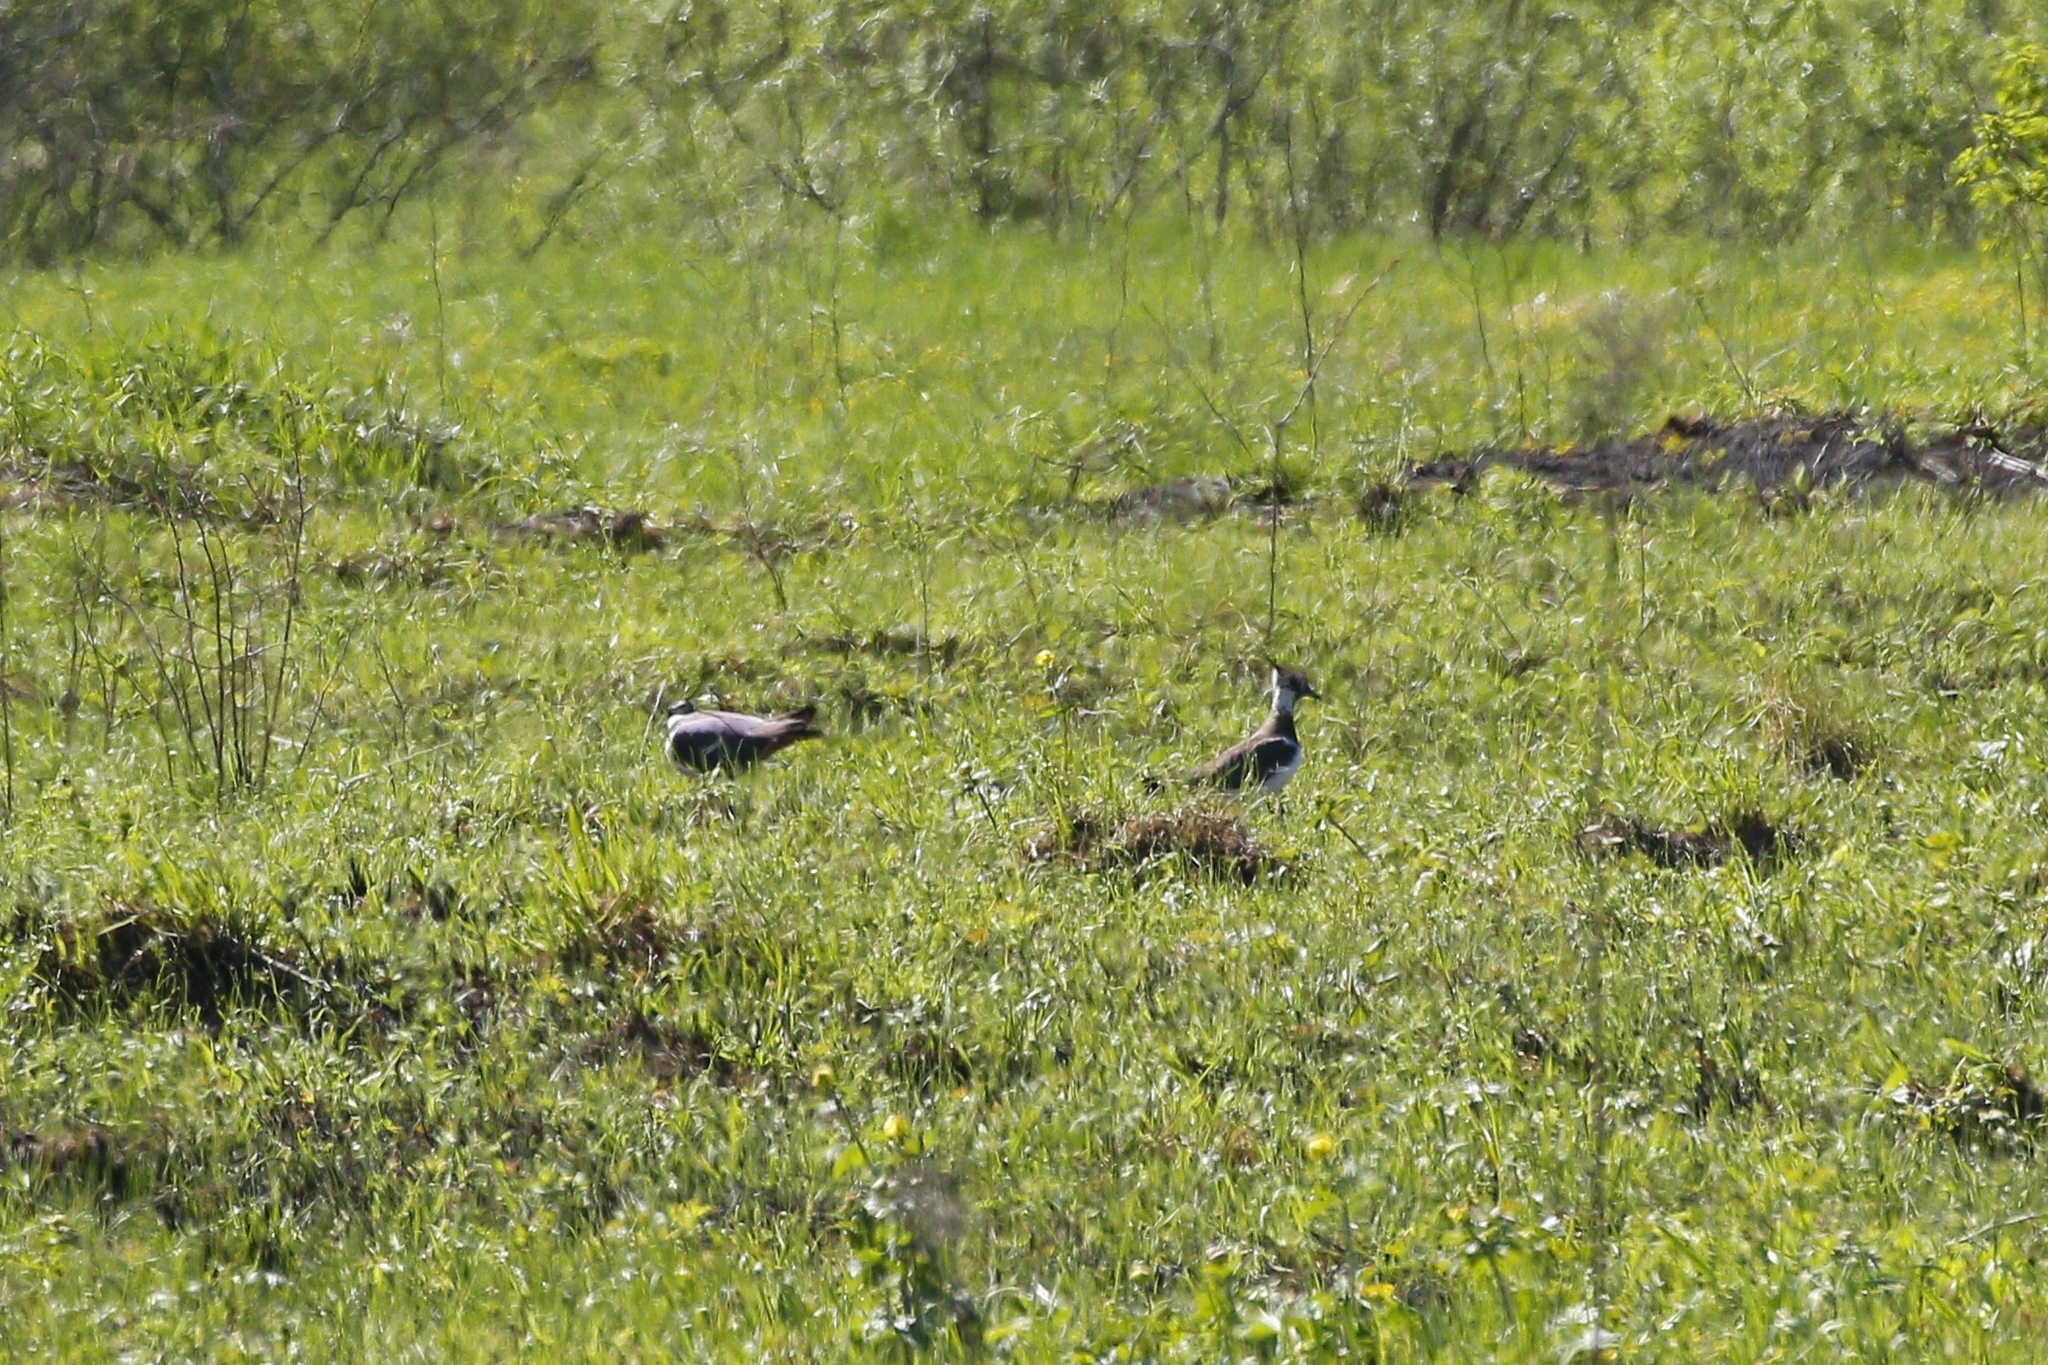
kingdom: Animalia
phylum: Chordata
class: Aves
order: Charadriiformes
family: Charadriidae
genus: Vanellus
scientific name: Vanellus vanellus
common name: Northern lapwing
